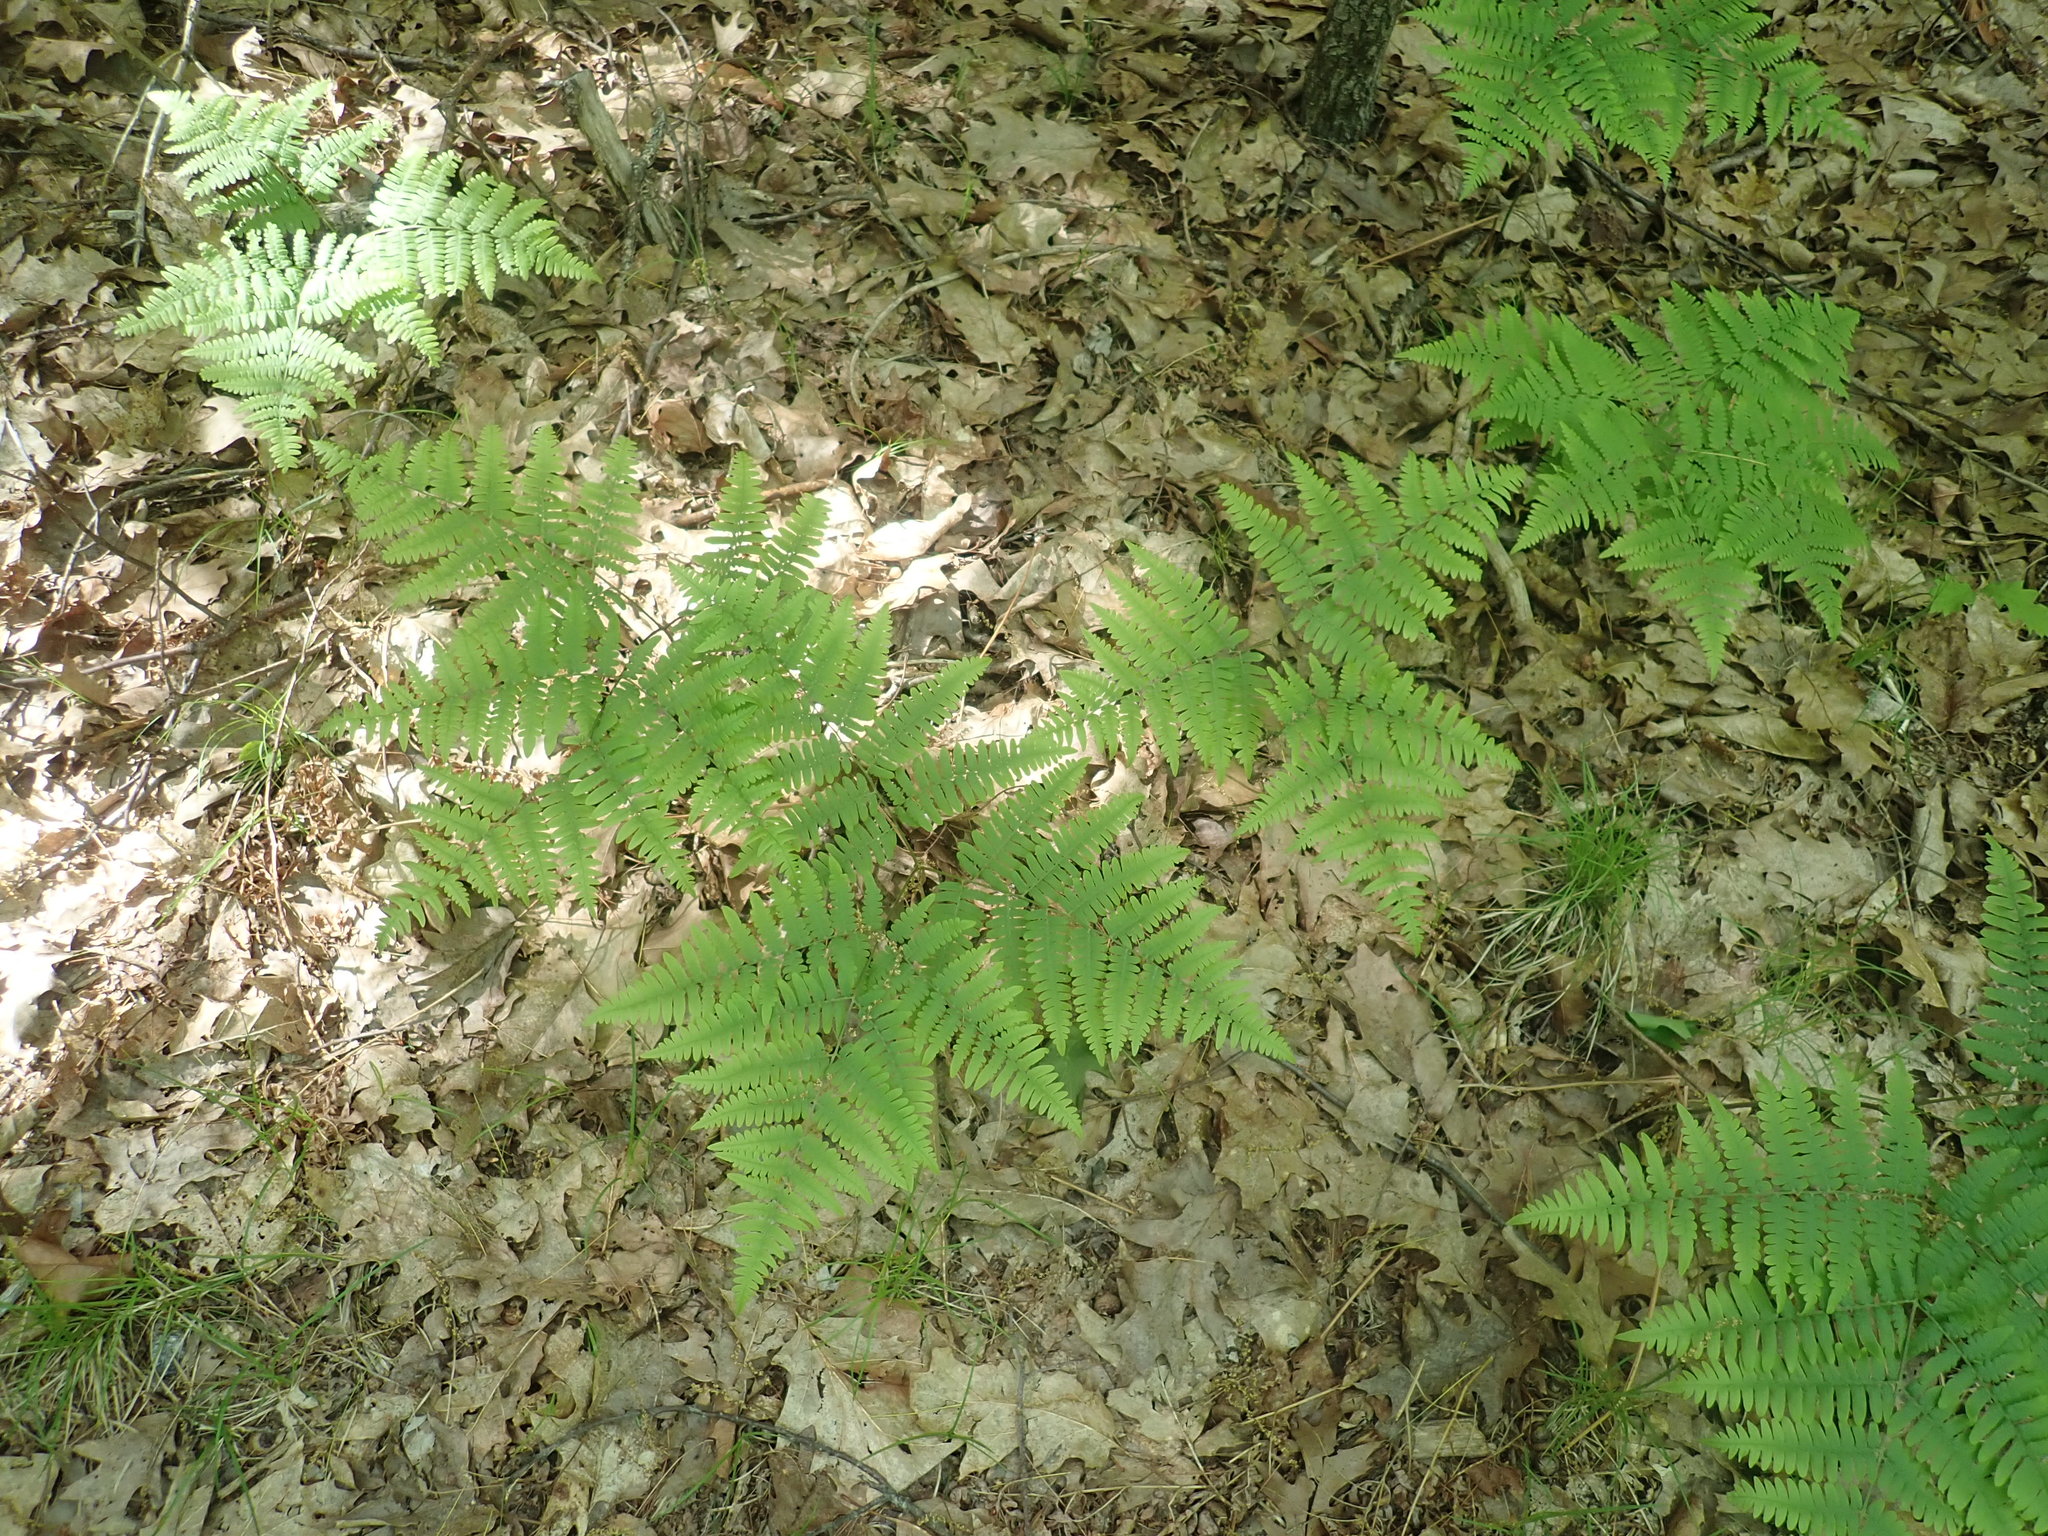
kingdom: Plantae
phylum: Tracheophyta
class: Polypodiopsida
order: Polypodiales
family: Dennstaedtiaceae
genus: Pteridium
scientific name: Pteridium aquilinum
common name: Bracken
